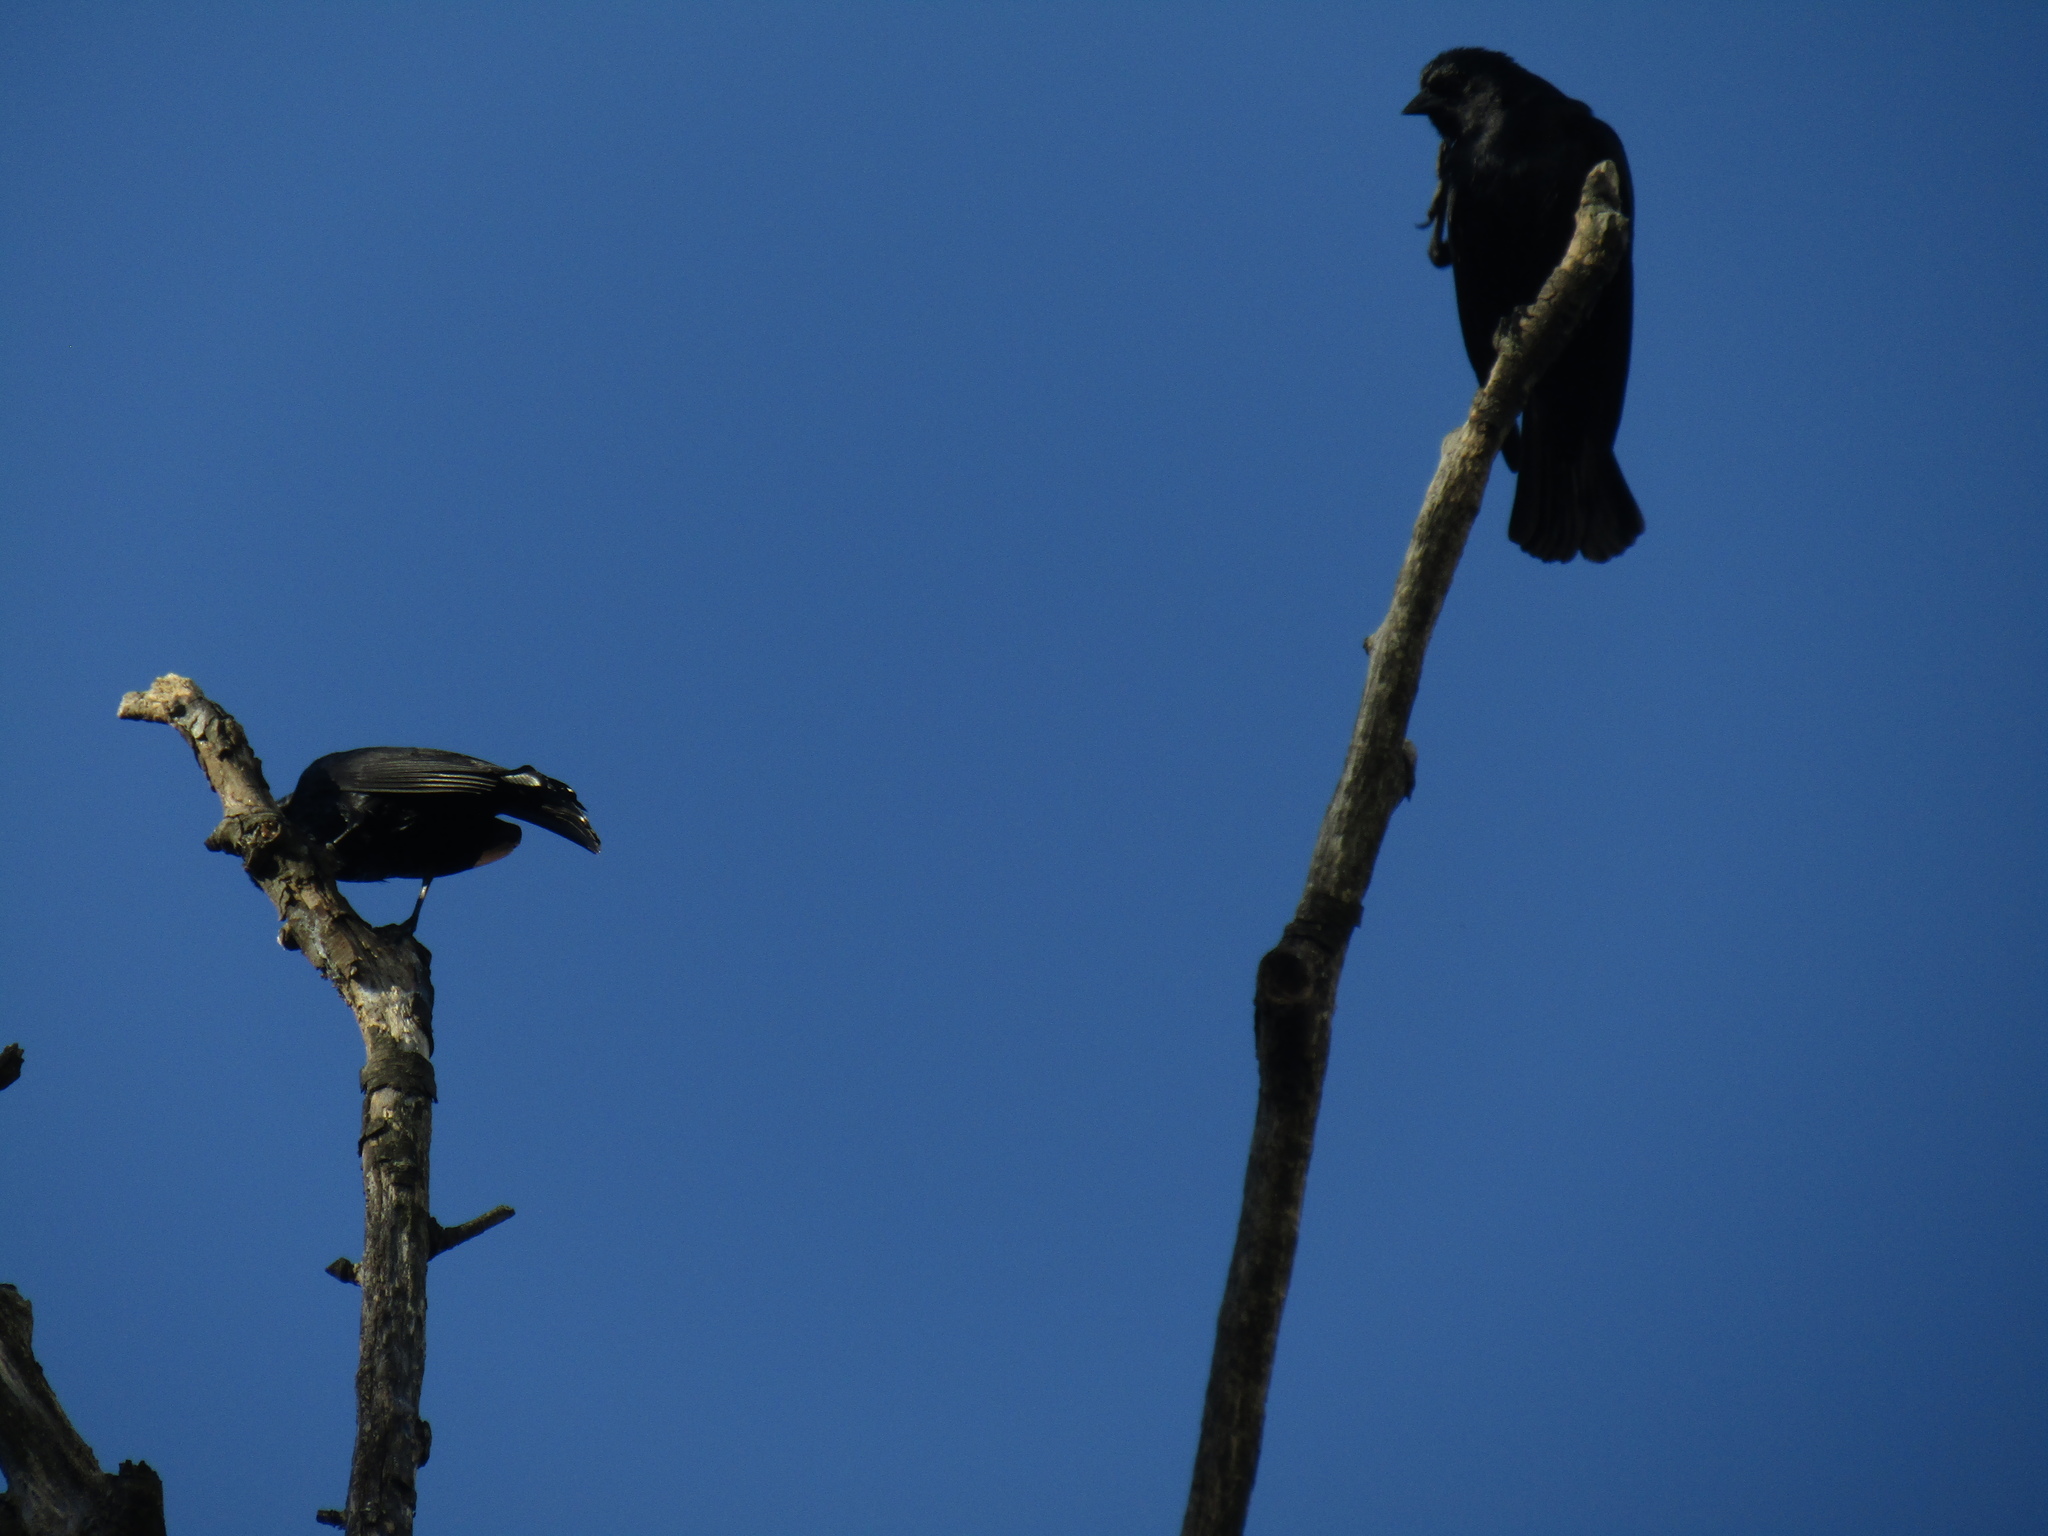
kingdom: Animalia
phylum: Chordata
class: Aves
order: Passeriformes
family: Icteridae
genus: Molothrus
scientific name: Molothrus rufoaxillaris
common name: Screaming cowbird
